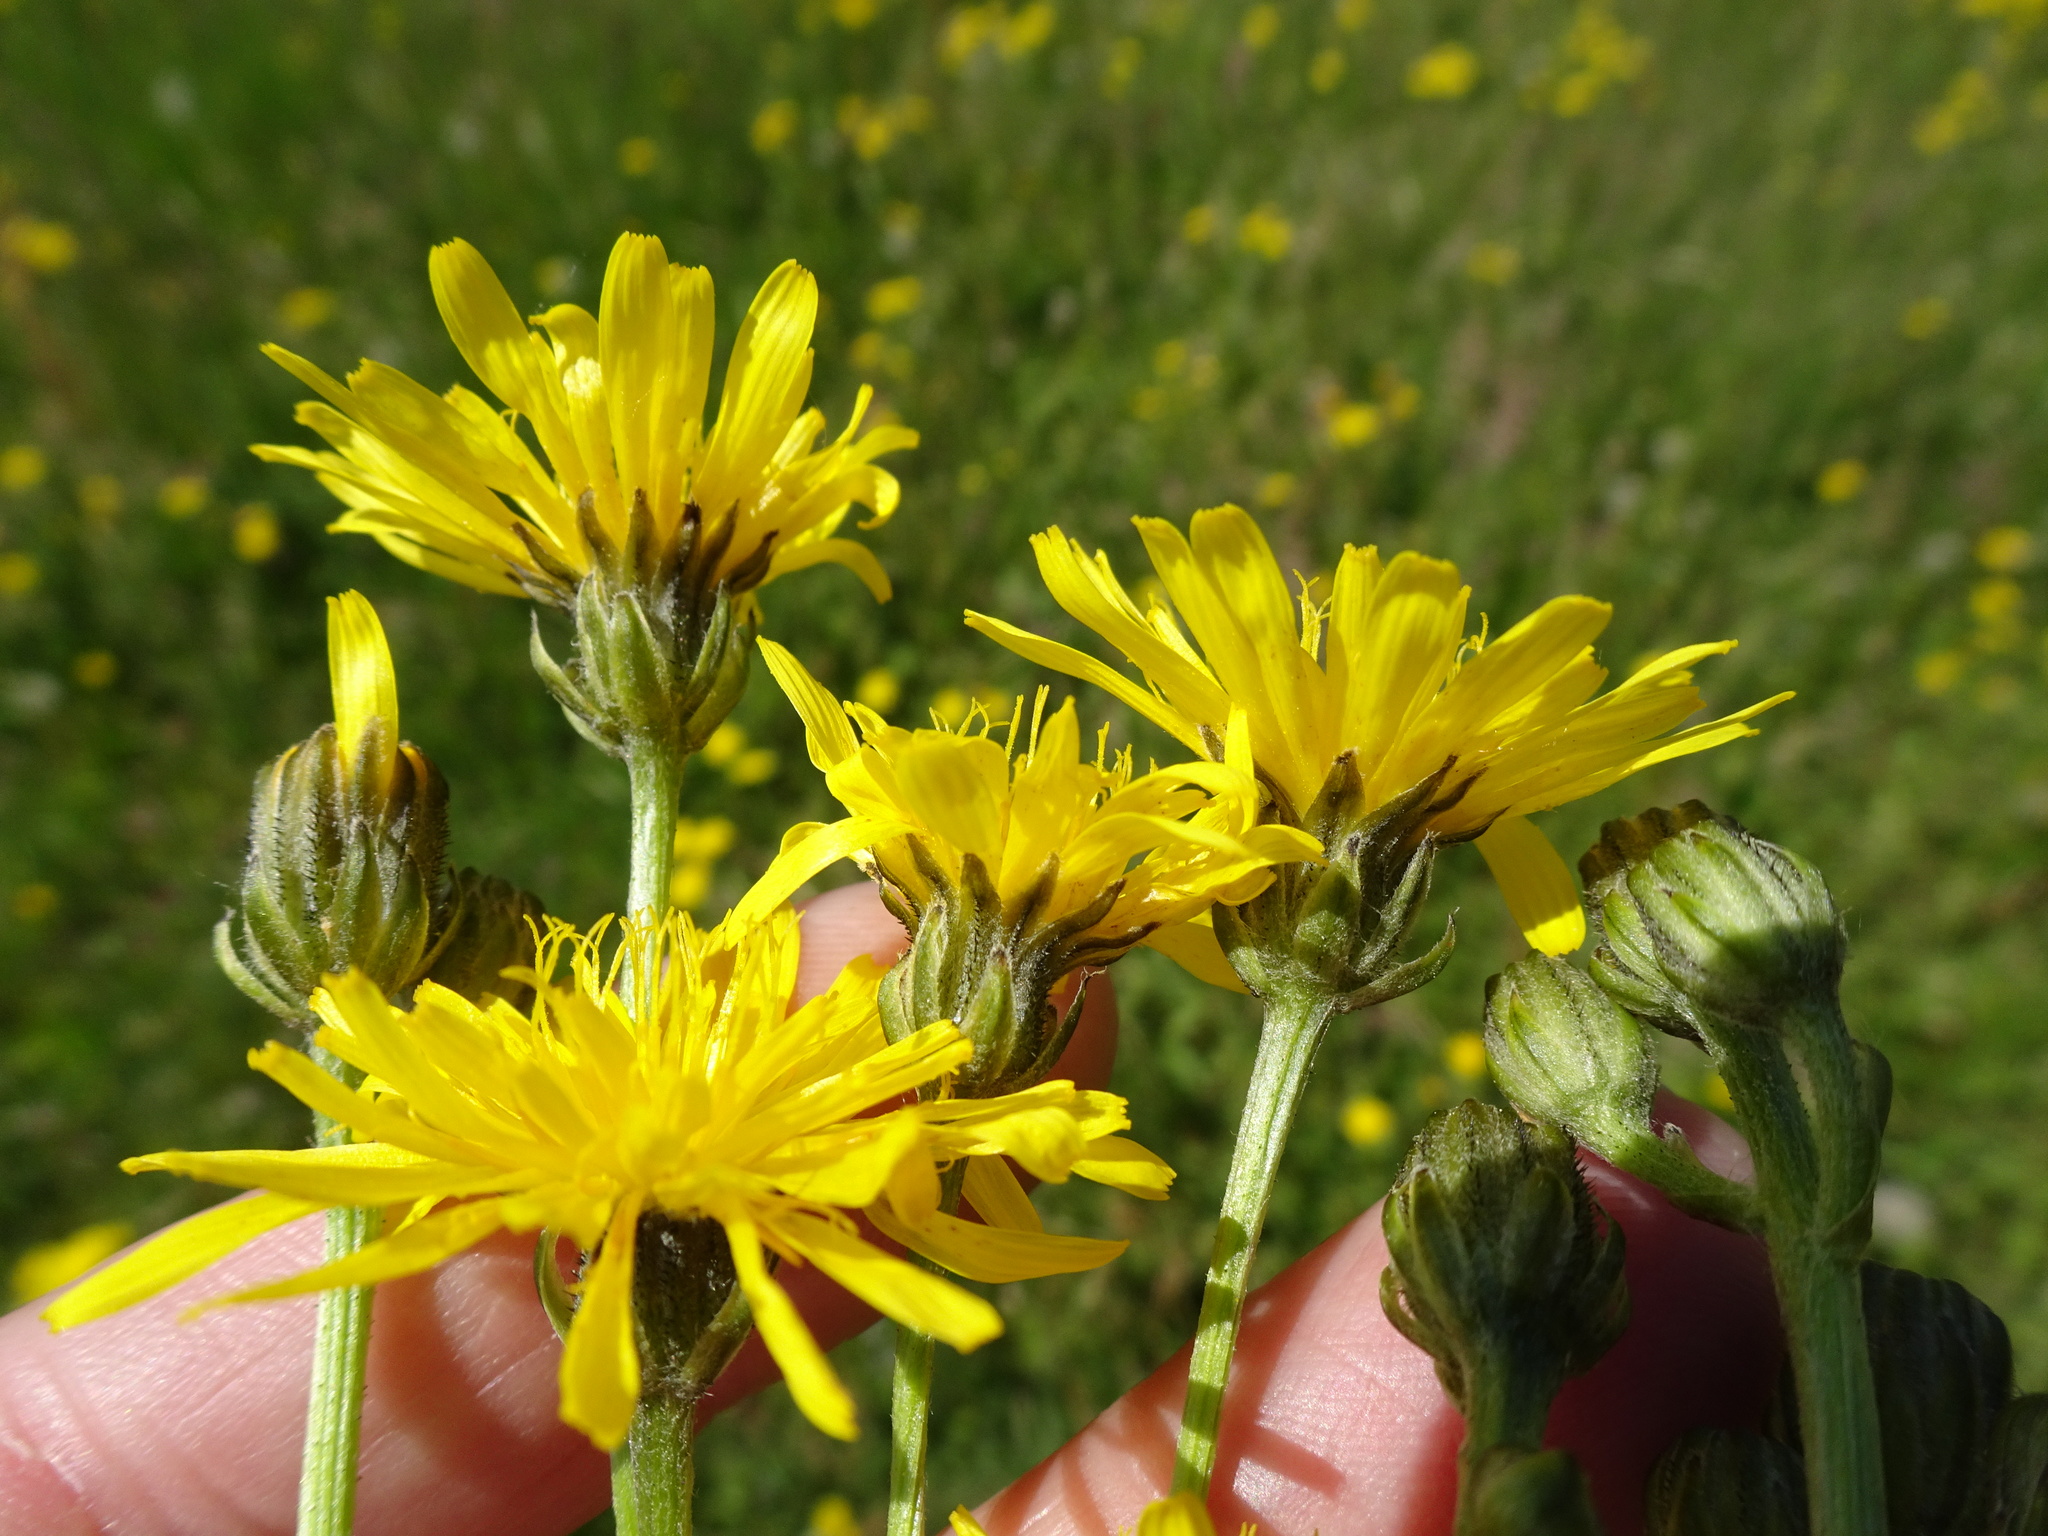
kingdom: Plantae
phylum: Tracheophyta
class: Magnoliopsida
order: Asterales
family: Asteraceae
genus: Crepis
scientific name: Crepis biennis
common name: Rough hawk's-beard
